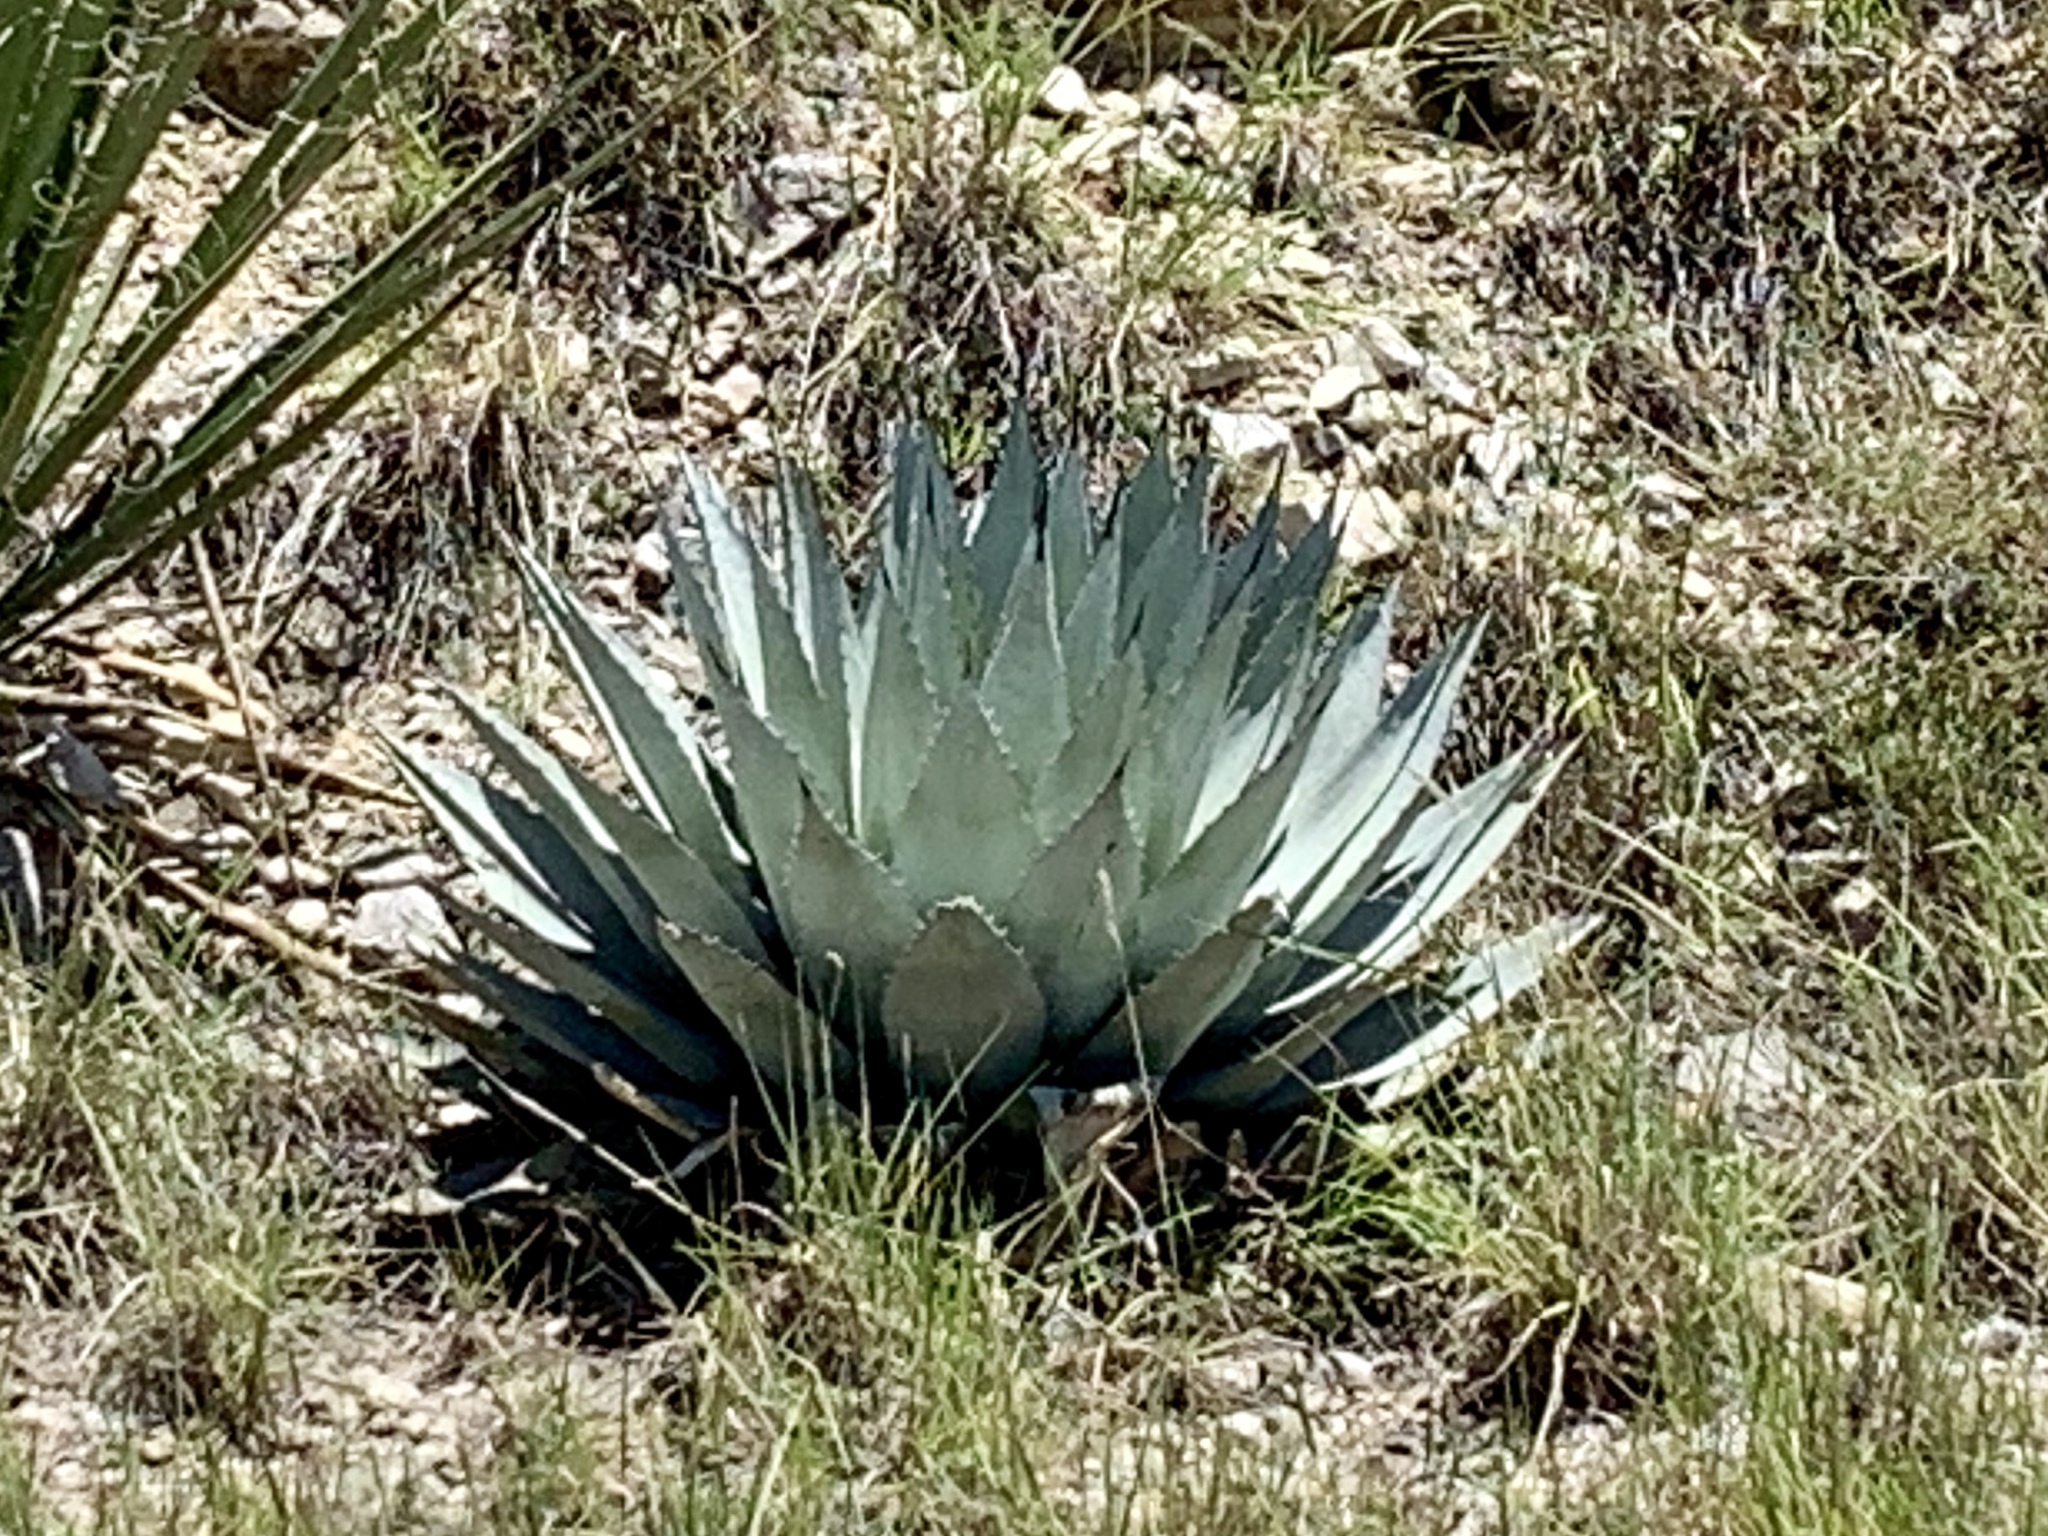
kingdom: Plantae
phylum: Tracheophyta
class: Liliopsida
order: Asparagales
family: Asparagaceae
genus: Agave
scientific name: Agave parryi
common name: Parry's agave
